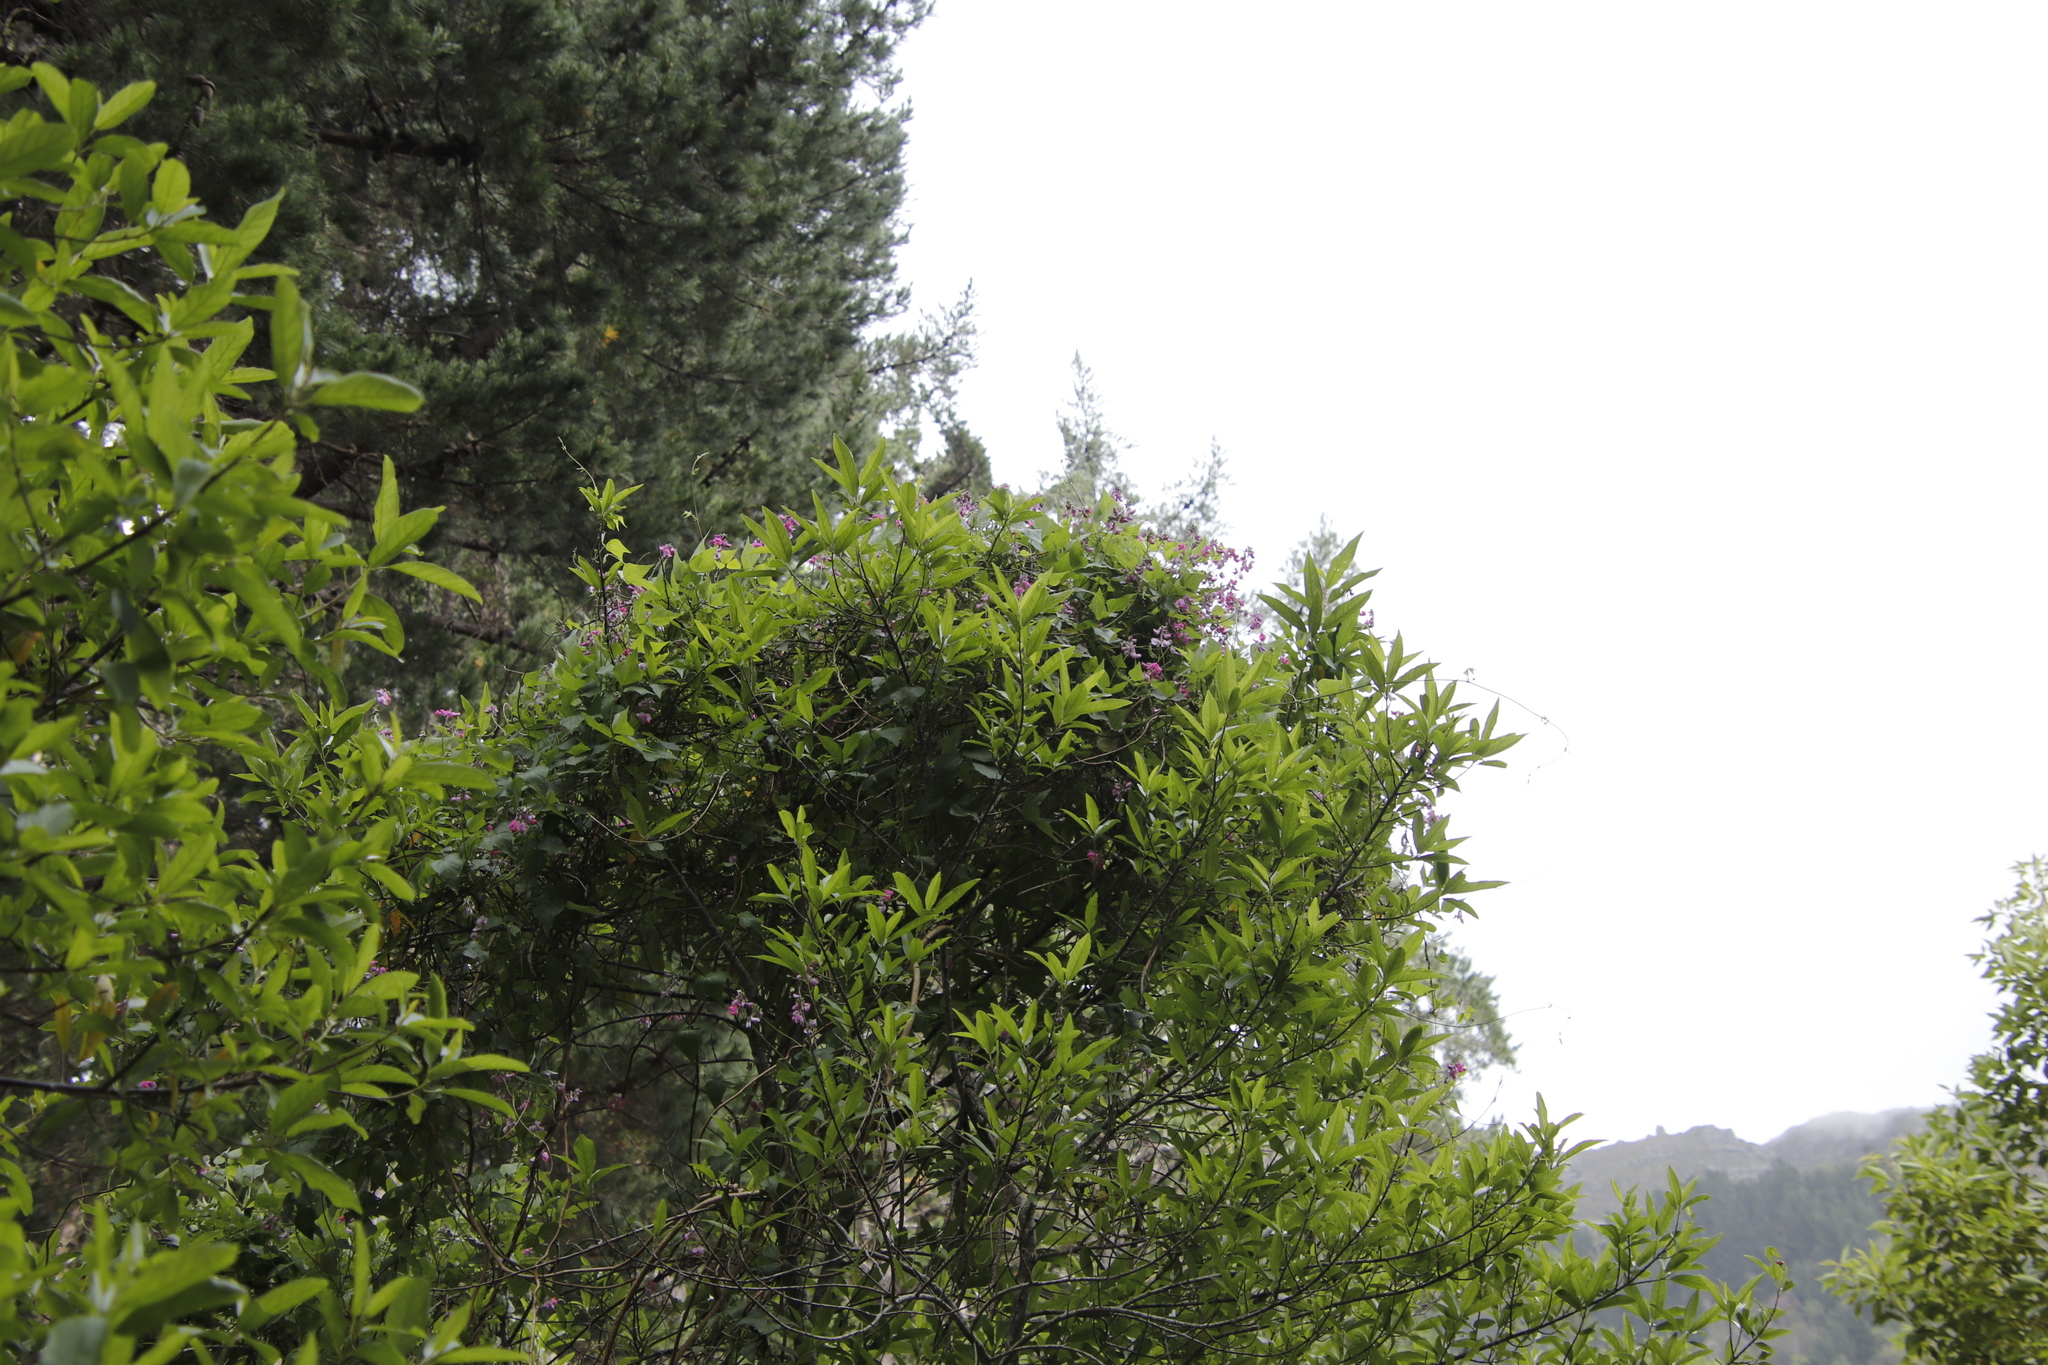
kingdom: Plantae
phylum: Tracheophyta
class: Magnoliopsida
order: Fabales
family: Fabaceae
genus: Dipogon
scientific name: Dipogon lignosus
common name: Okie bean
